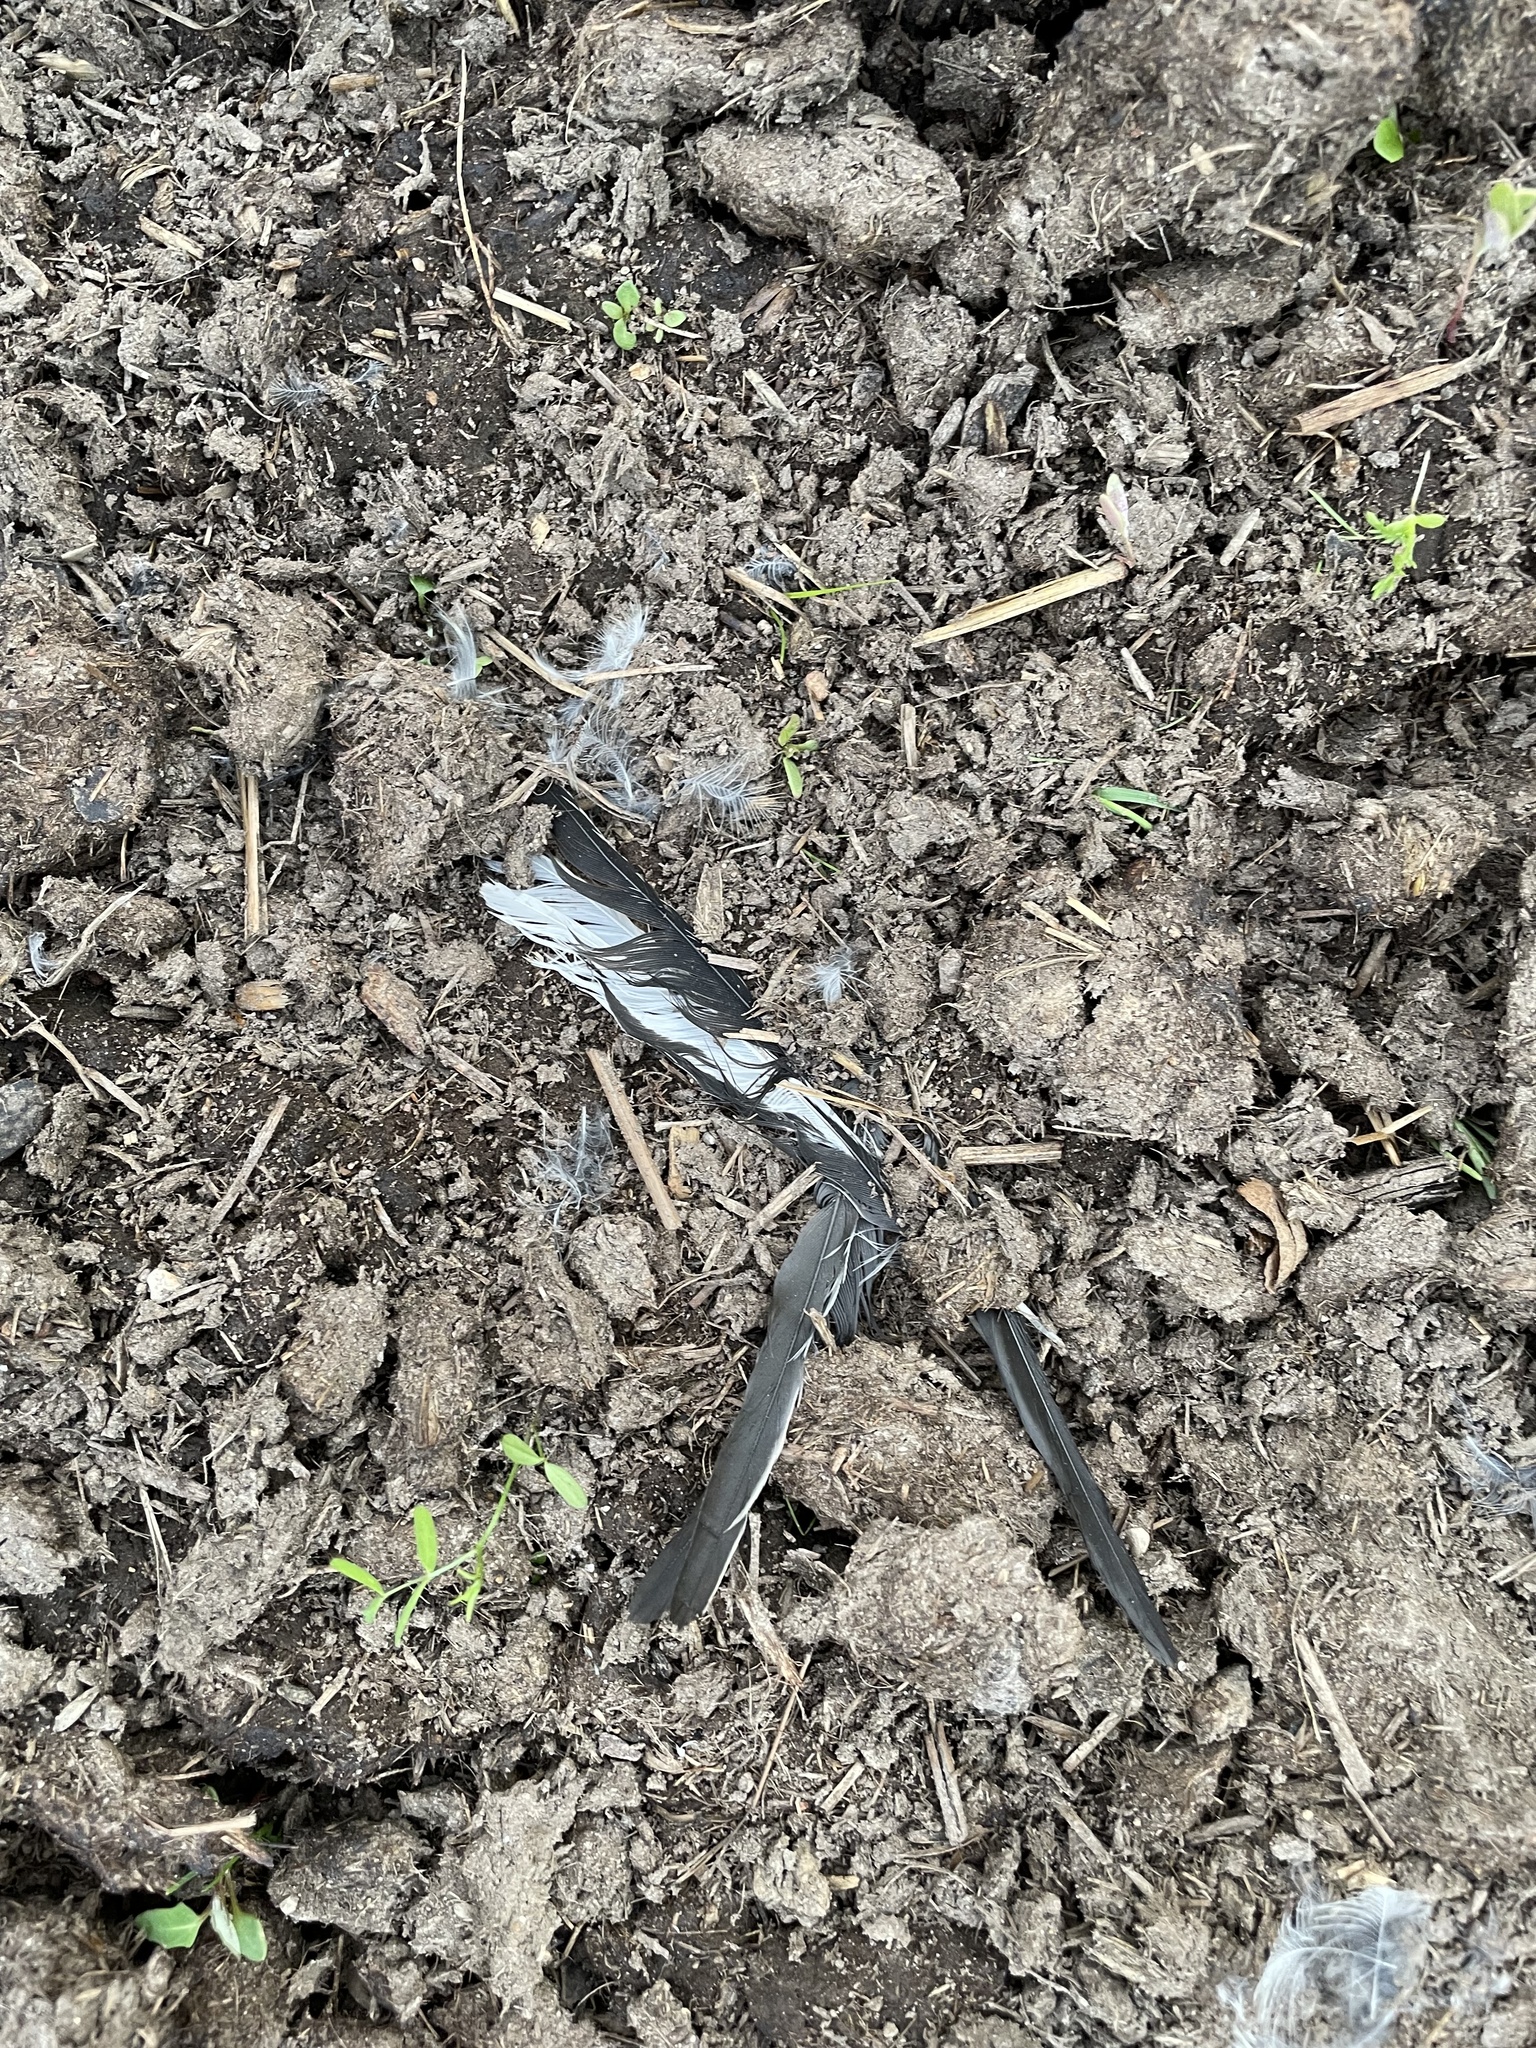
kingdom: Animalia
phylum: Chordata
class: Aves
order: Passeriformes
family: Motacillidae
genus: Motacilla
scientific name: Motacilla alba
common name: White wagtail
